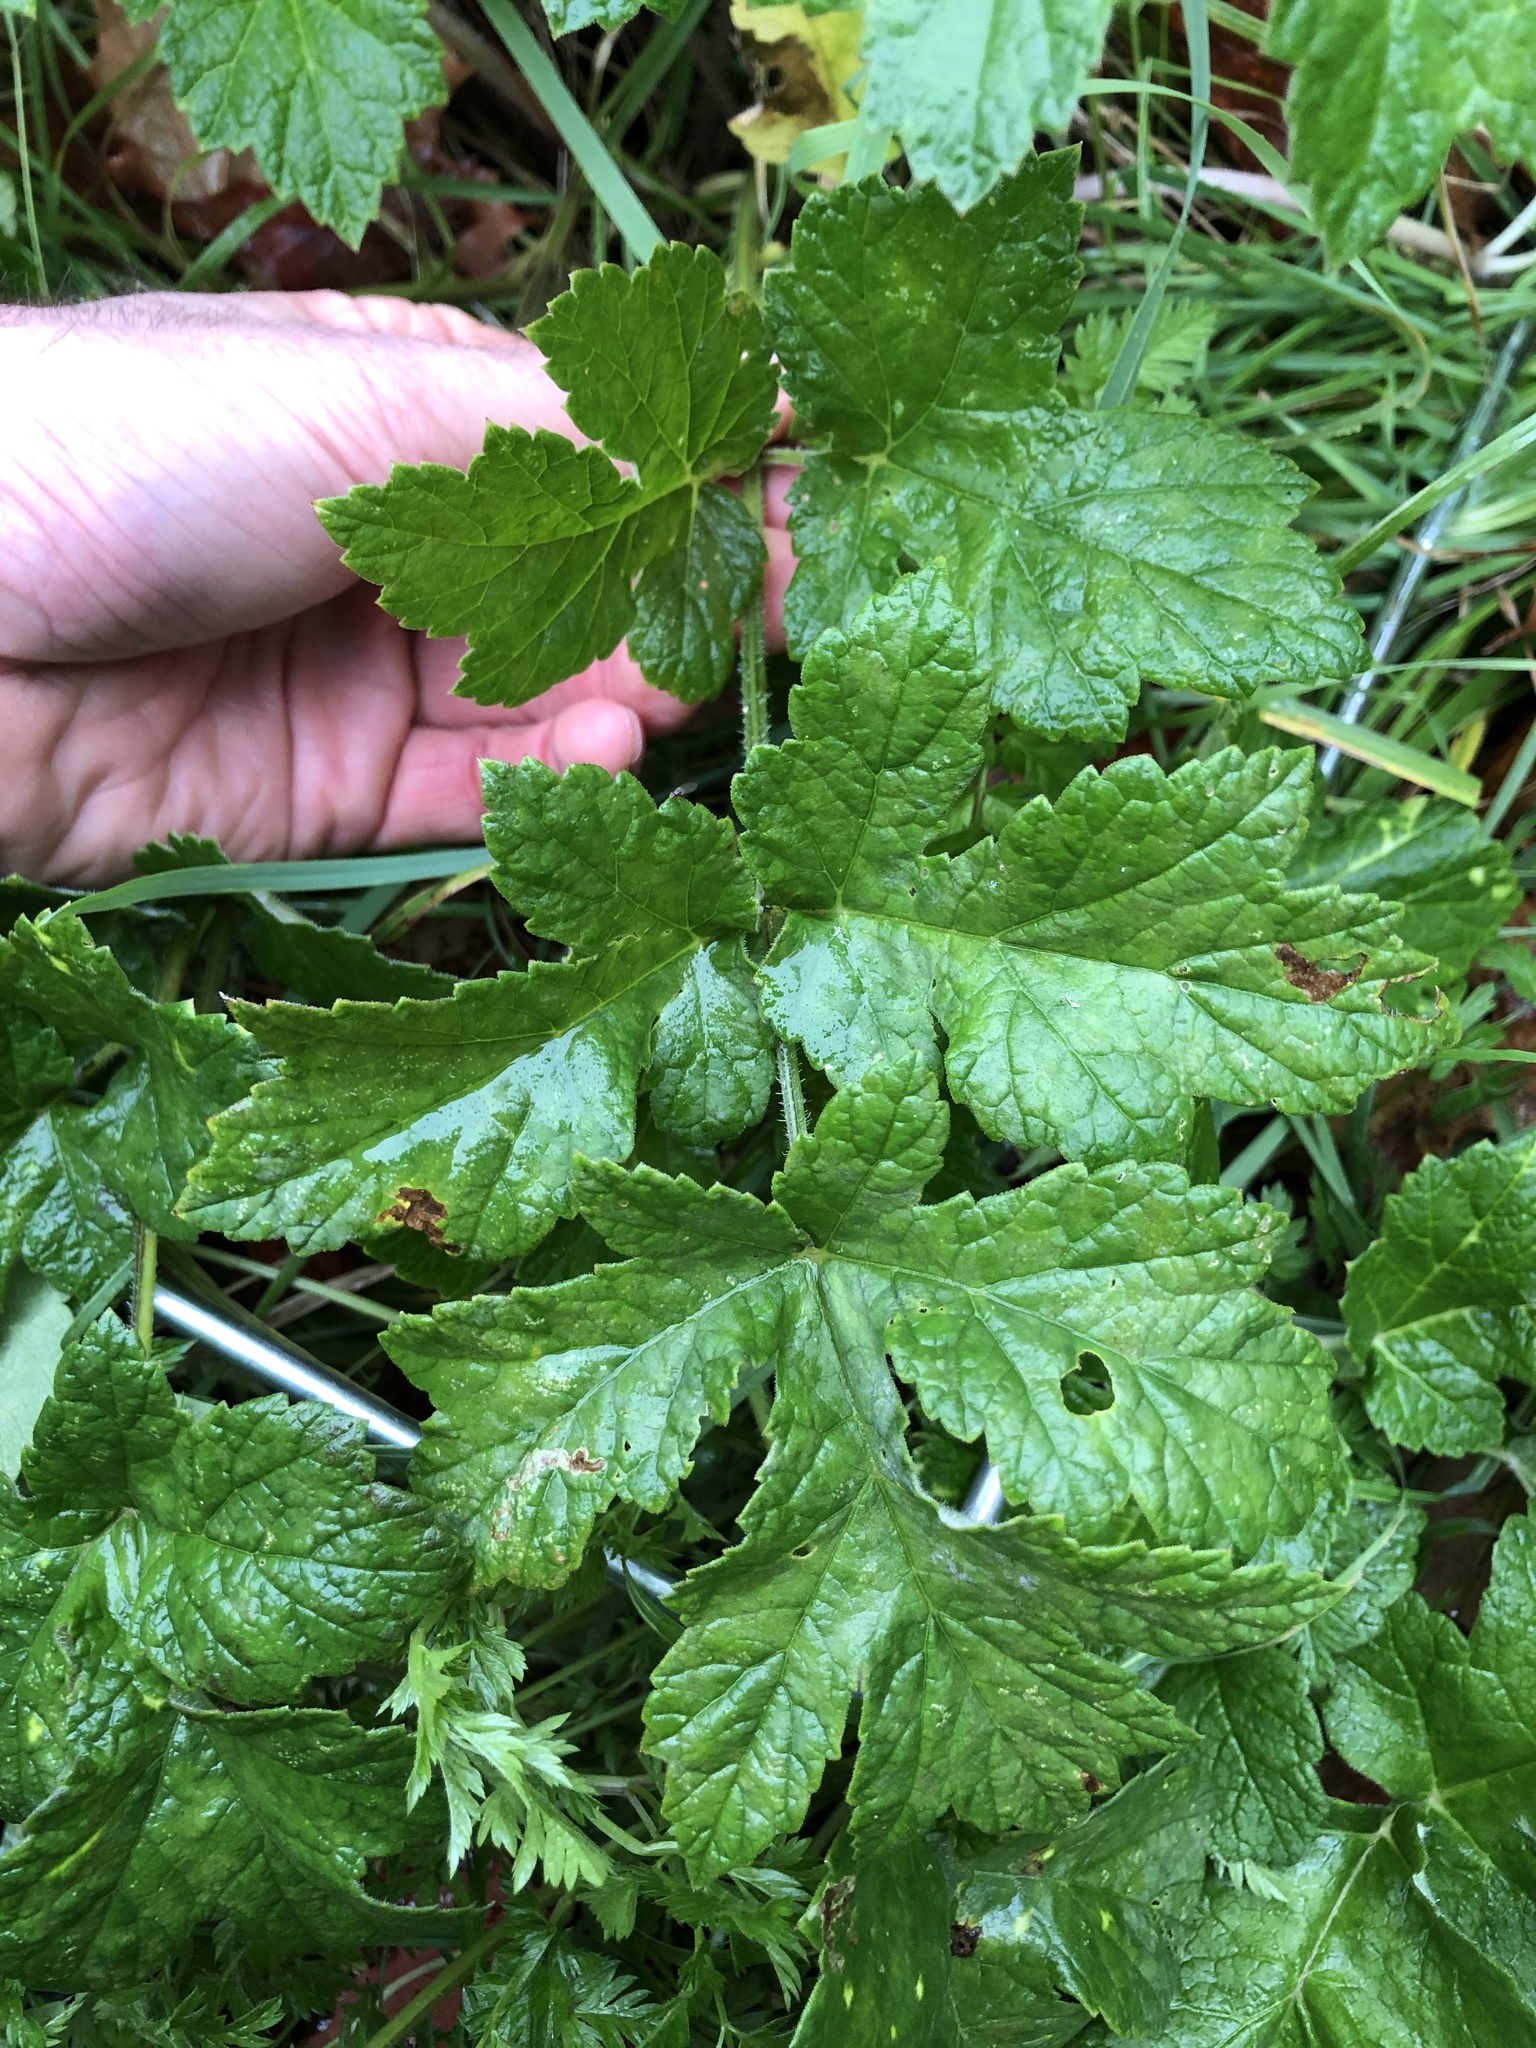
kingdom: Plantae
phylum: Tracheophyta
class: Magnoliopsida
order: Apiales
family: Apiaceae
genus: Heracleum
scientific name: Heracleum sphondylium
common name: Hogweed
